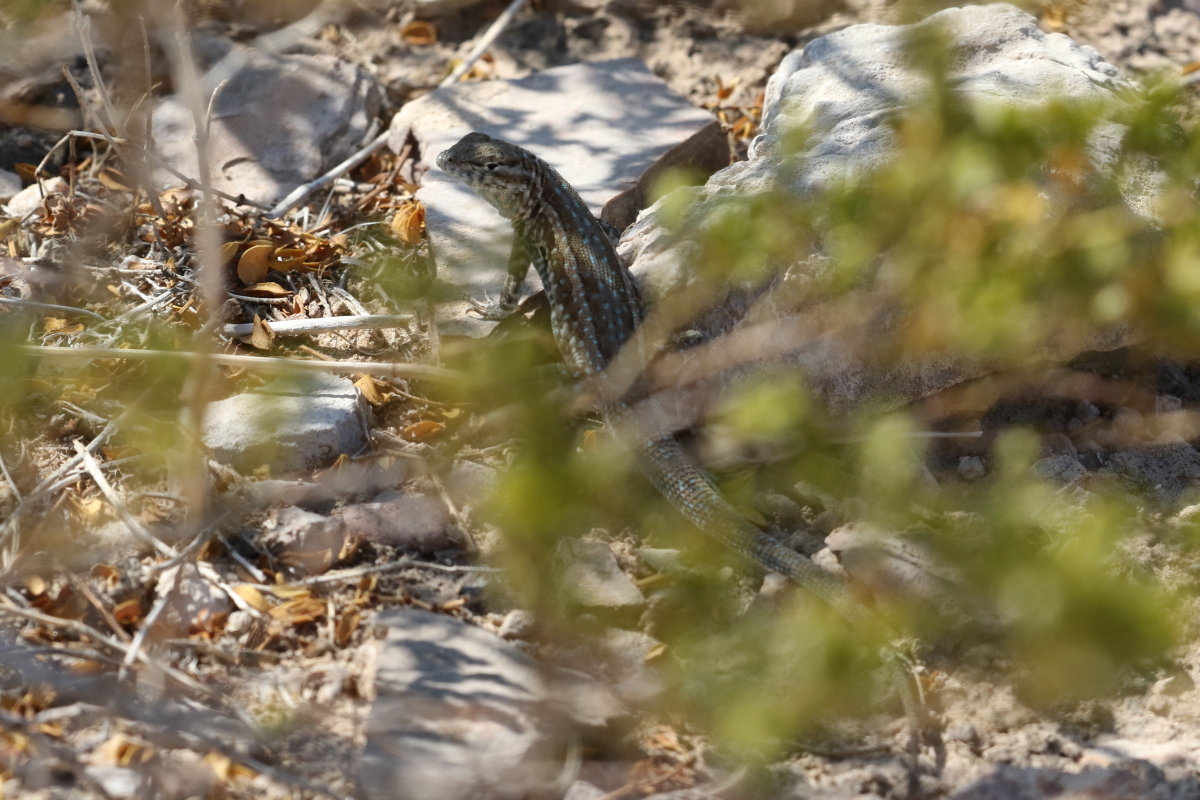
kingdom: Animalia
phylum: Chordata
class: Squamata
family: Phrynosomatidae
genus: Uta
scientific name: Uta stansburiana
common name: Side-blotched lizard
